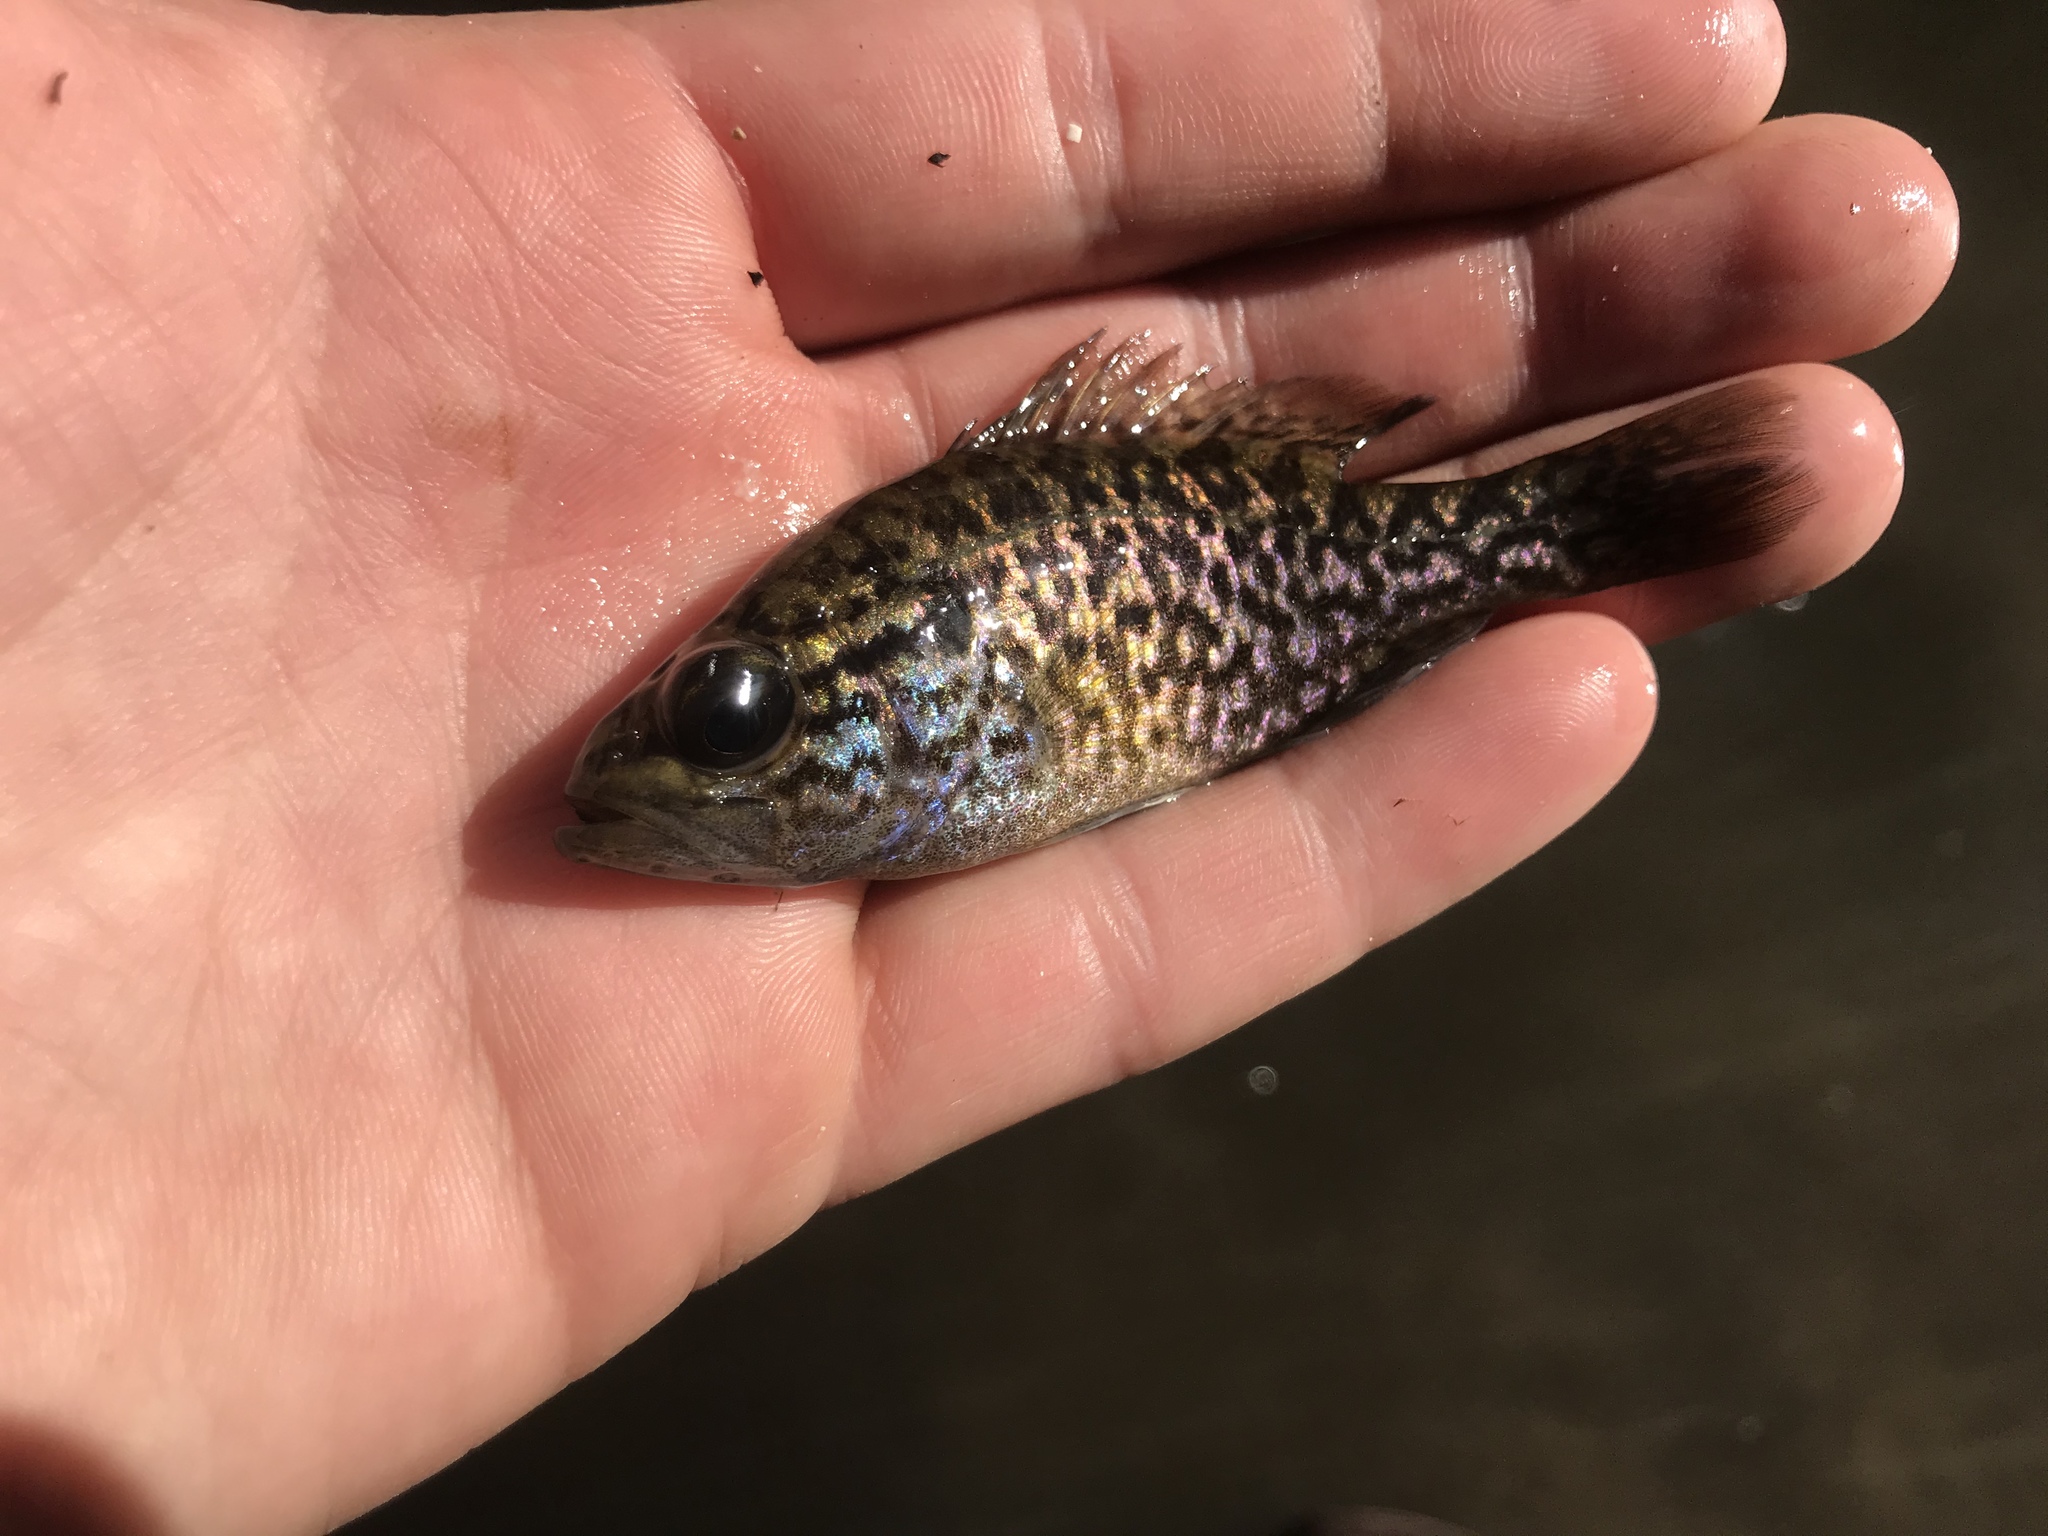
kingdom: Animalia
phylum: Chordata
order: Perciformes
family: Centrarchidae
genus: Lepomis
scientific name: Lepomis gulosus
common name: Warmouth
